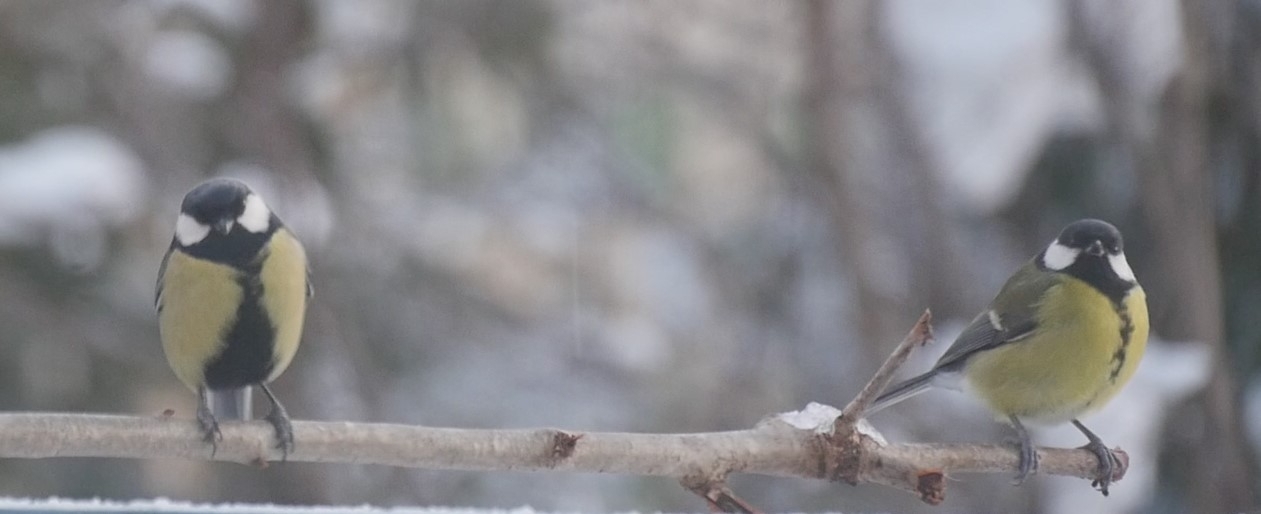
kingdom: Animalia
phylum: Chordata
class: Aves
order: Passeriformes
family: Paridae
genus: Parus
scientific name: Parus major
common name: Great tit
